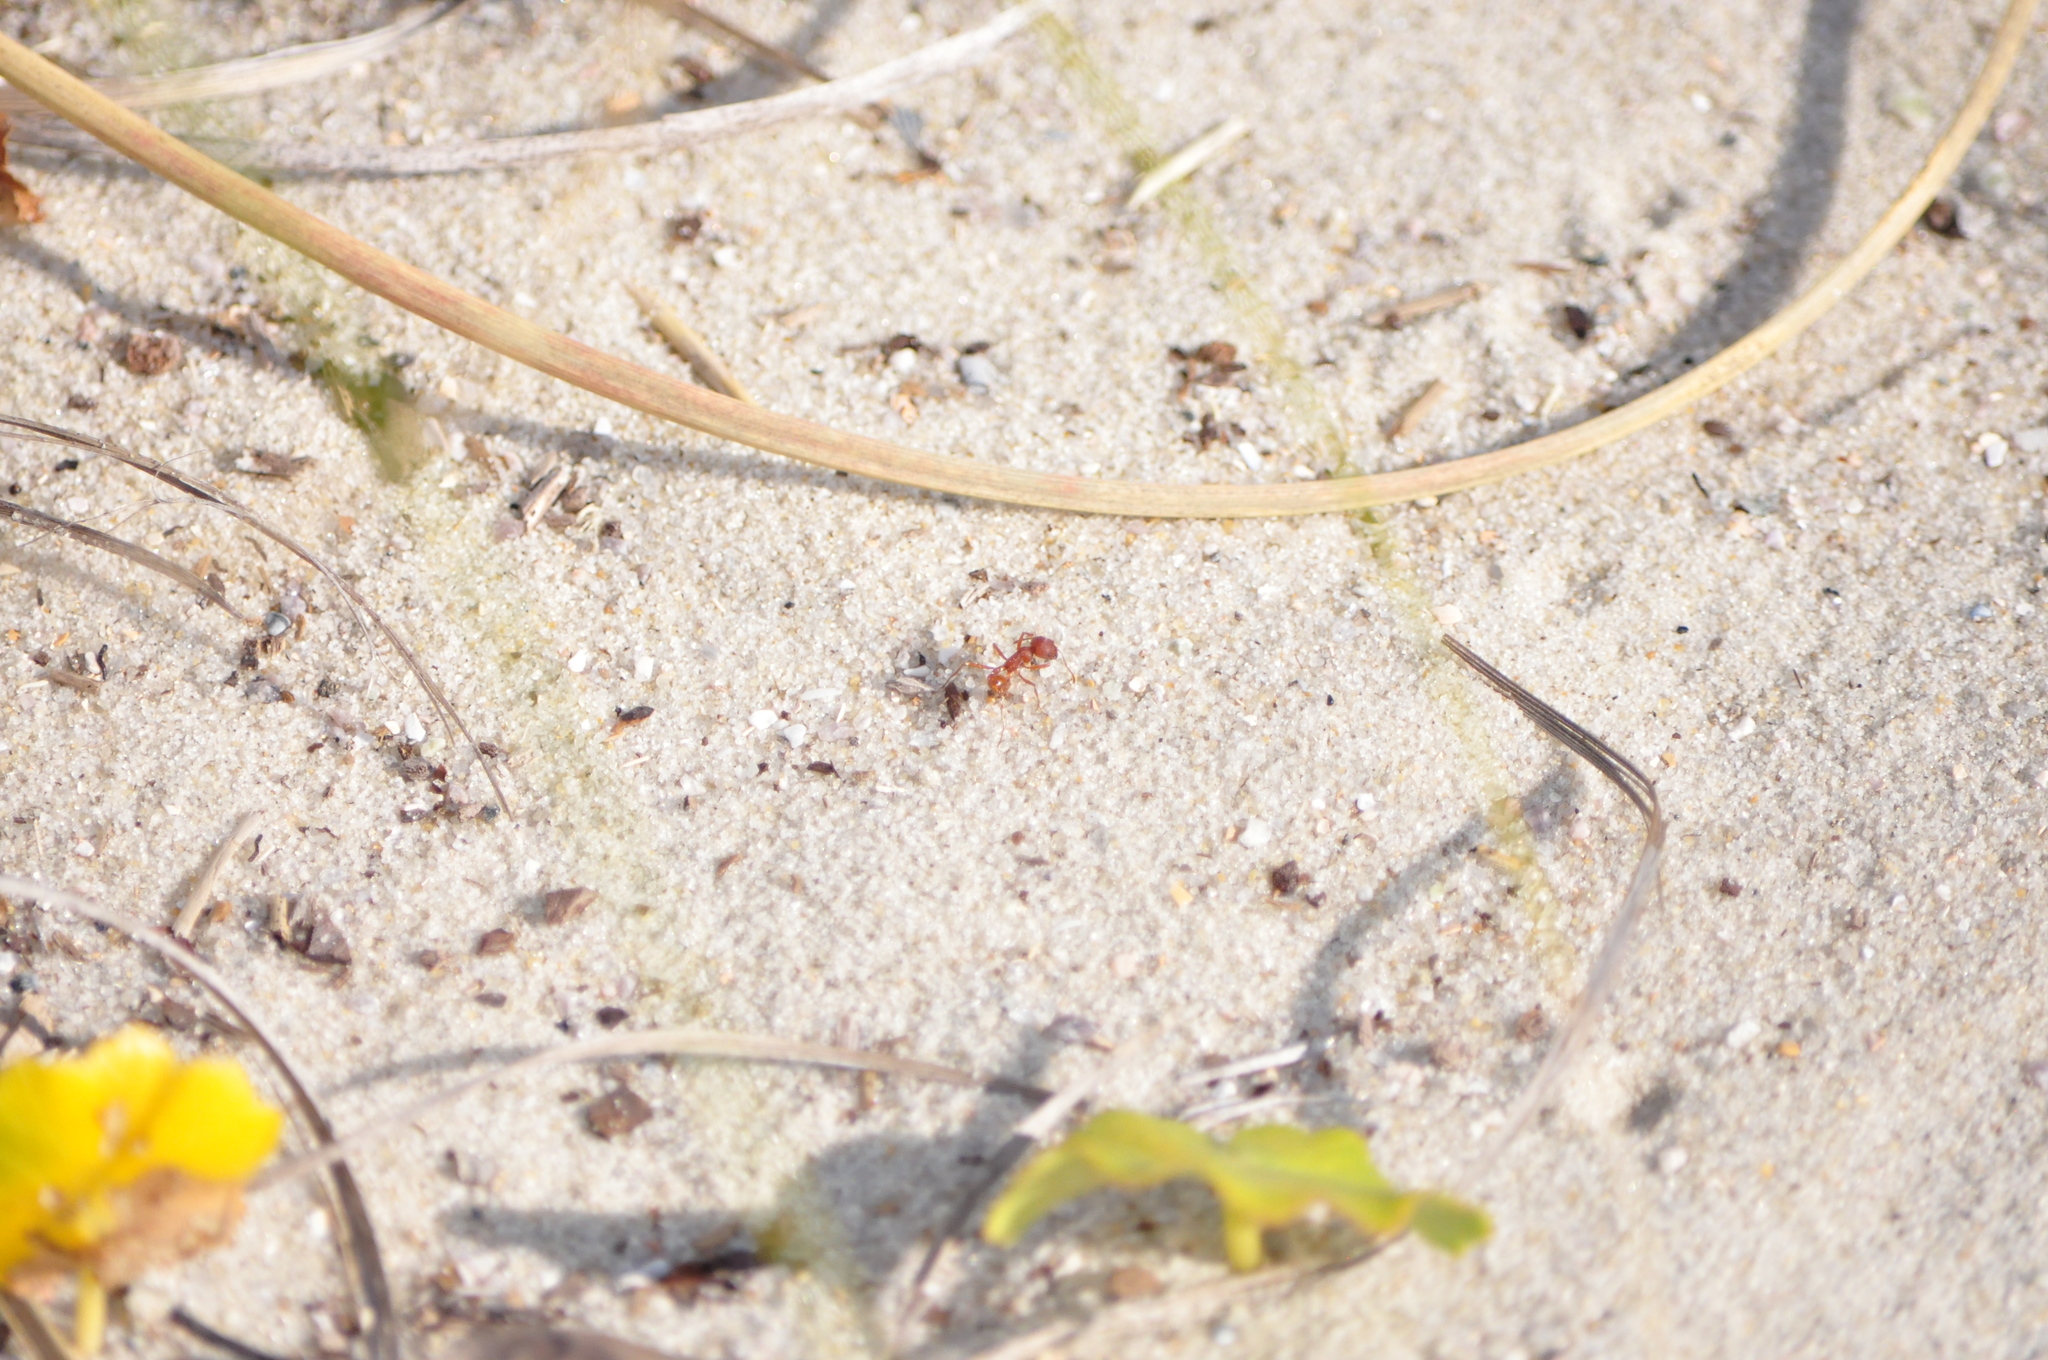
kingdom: Animalia
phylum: Arthropoda
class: Insecta
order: Hymenoptera
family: Formicidae
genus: Pogonomyrmex
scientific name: Pogonomyrmex badius
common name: Florida harvester ant
